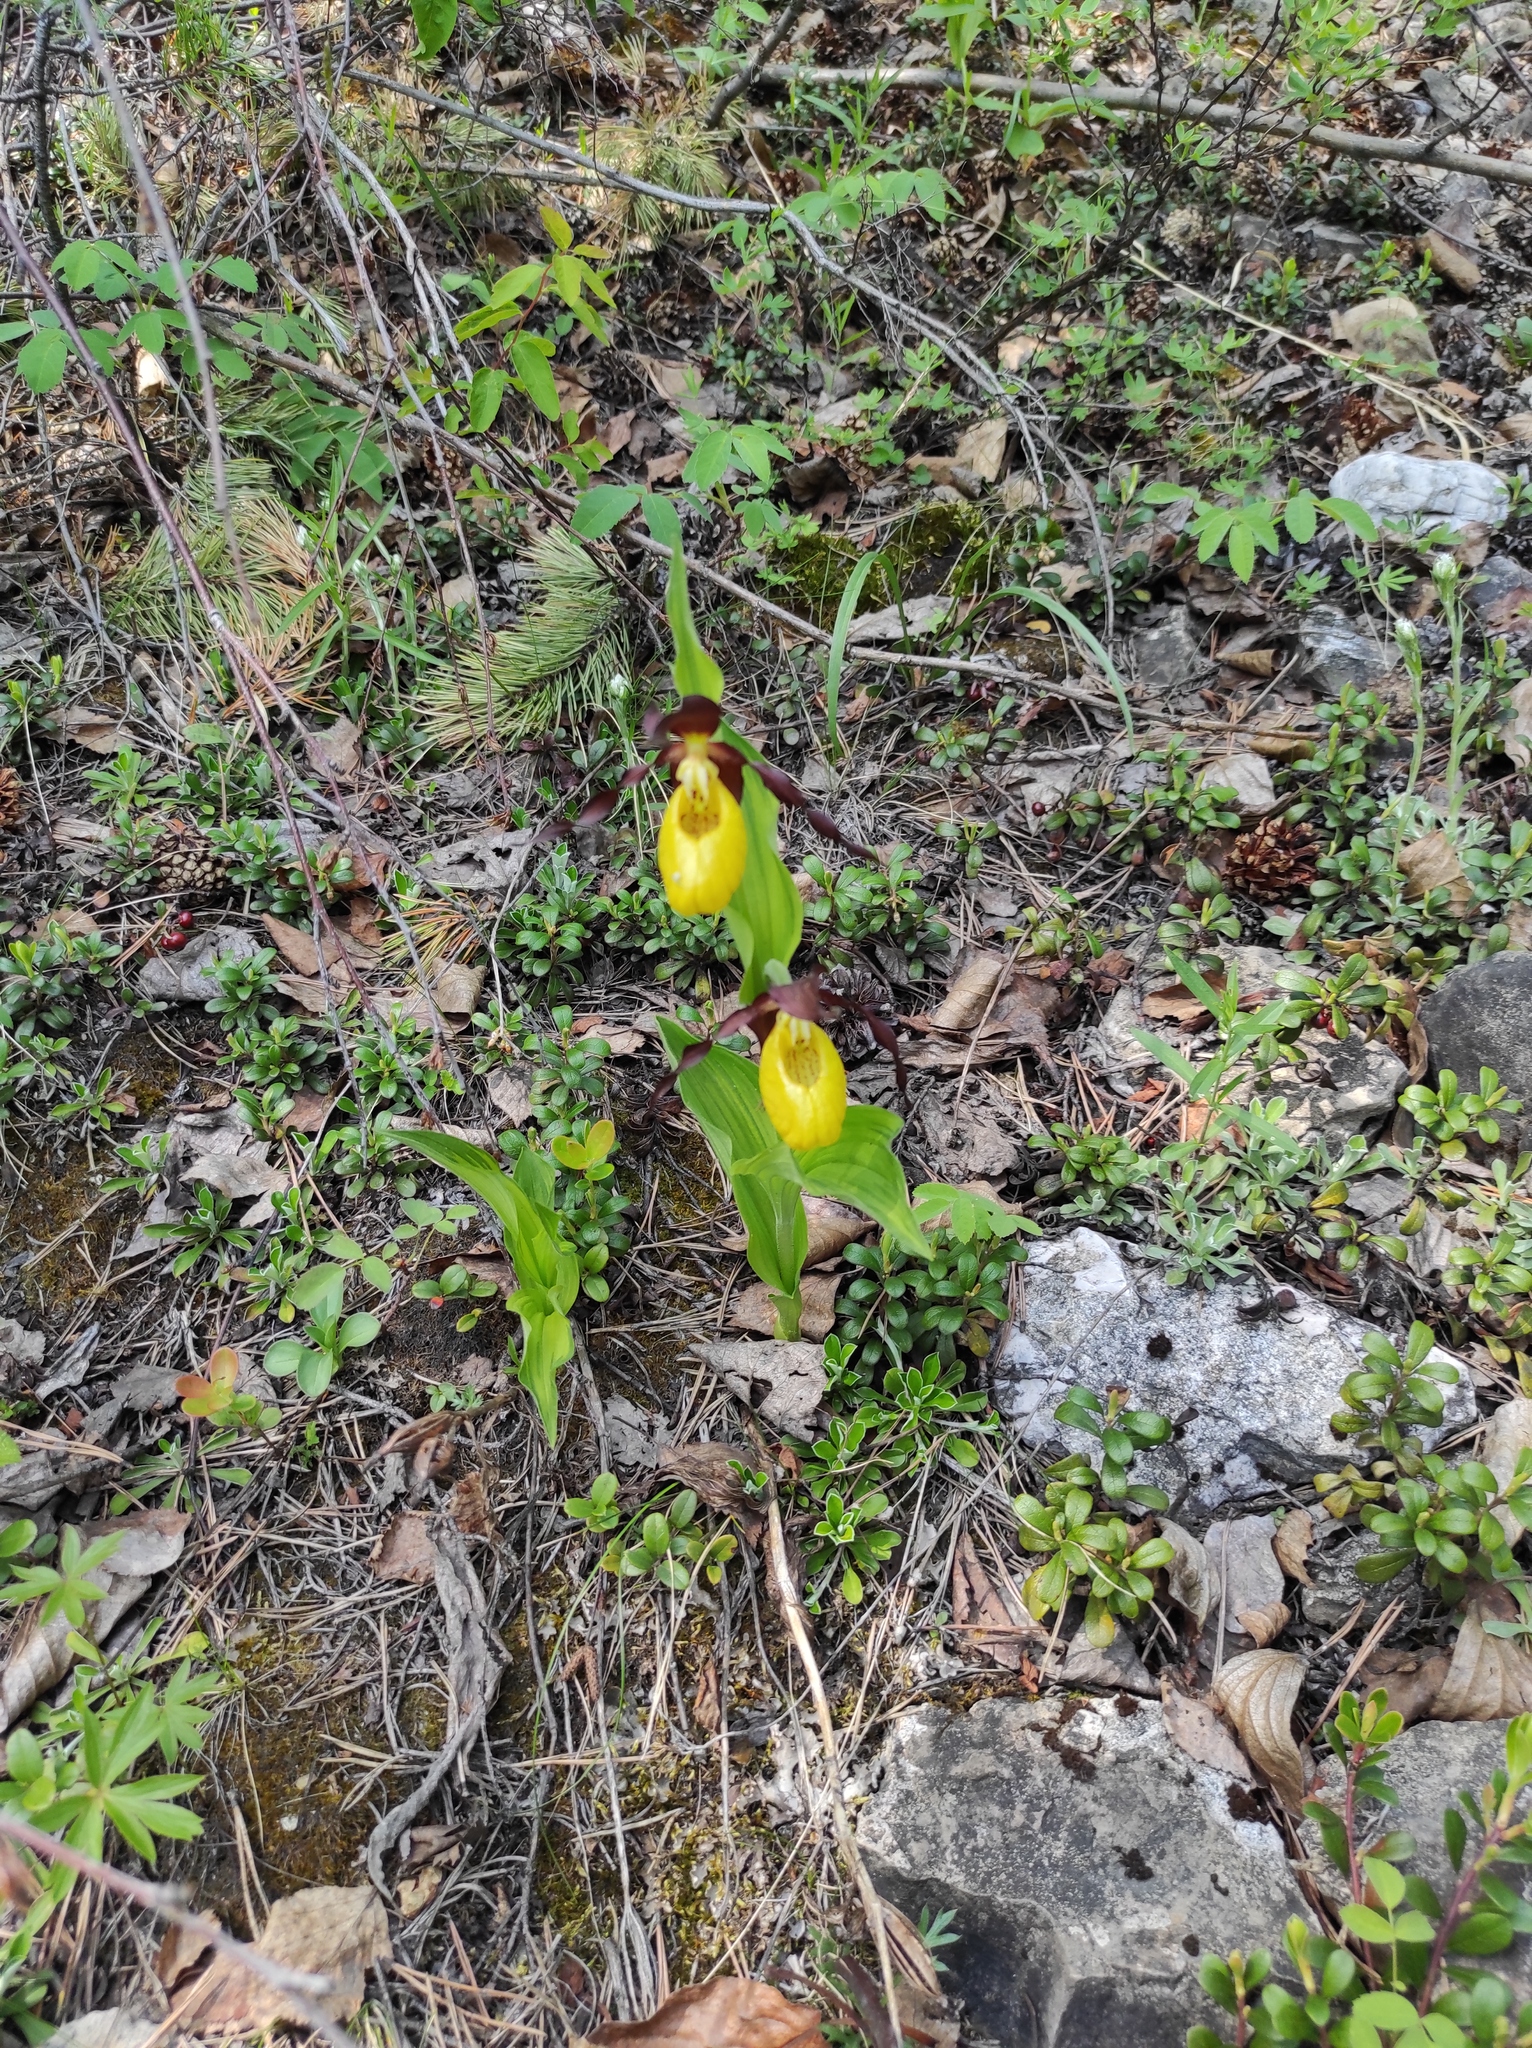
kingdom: Plantae
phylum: Tracheophyta
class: Liliopsida
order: Asparagales
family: Orchidaceae
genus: Cypripedium
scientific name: Cypripedium calceolus
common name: Lady's-slipper
